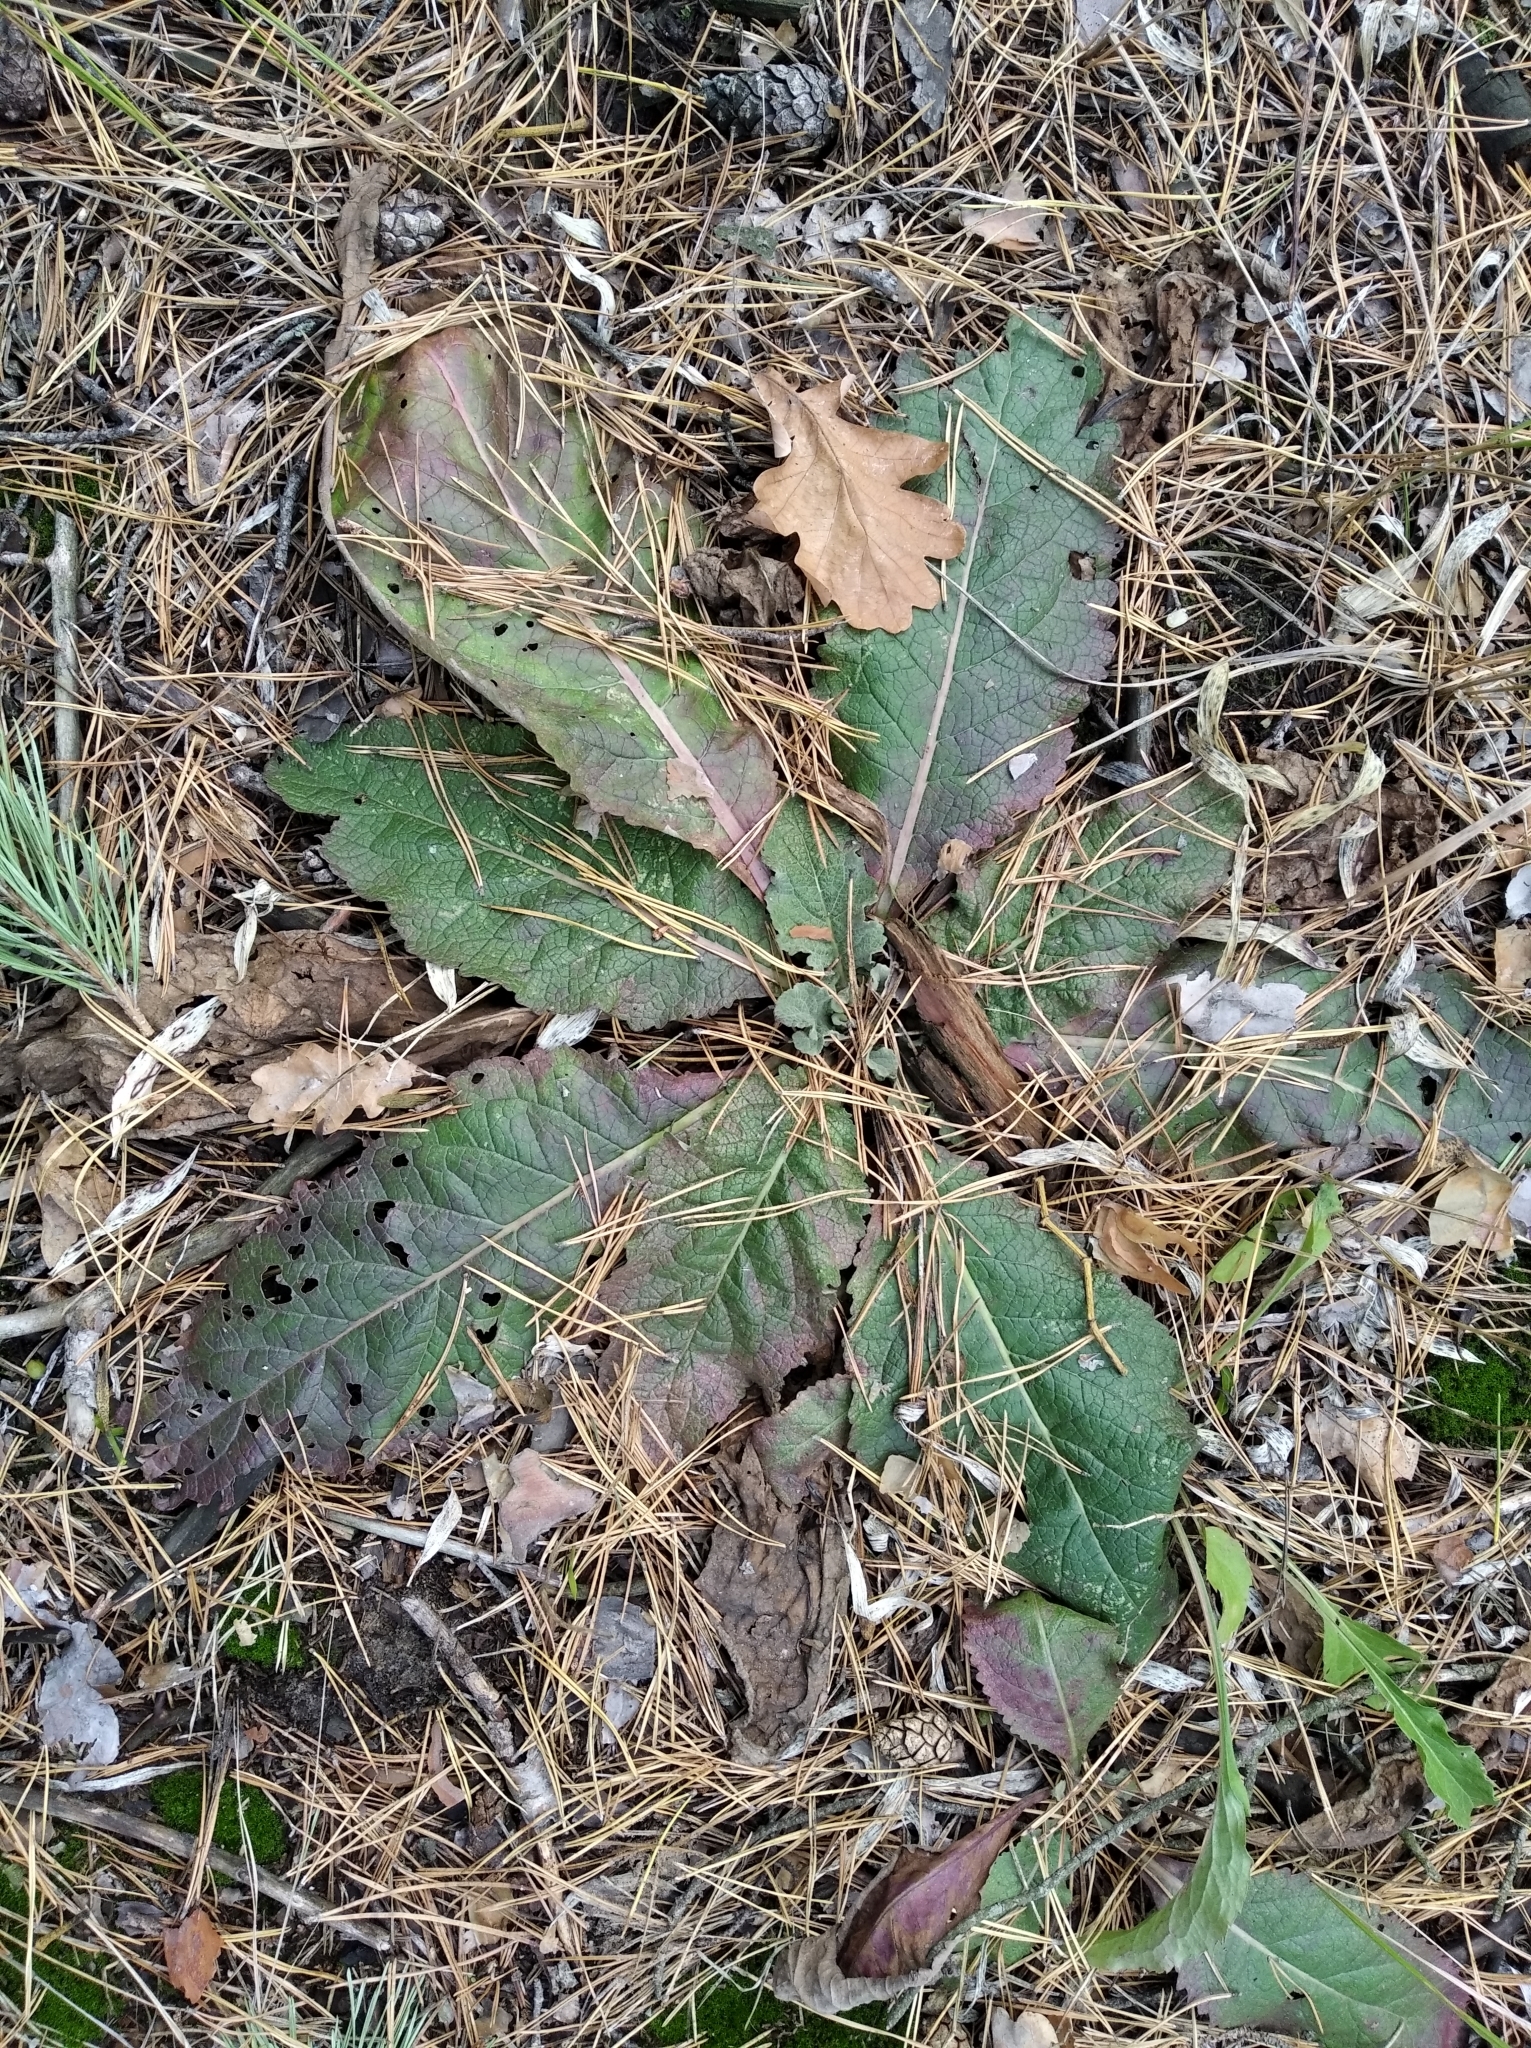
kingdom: Plantae
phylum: Tracheophyta
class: Magnoliopsida
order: Lamiales
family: Scrophulariaceae
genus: Verbascum
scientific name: Verbascum lychnitis
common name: White mullein
